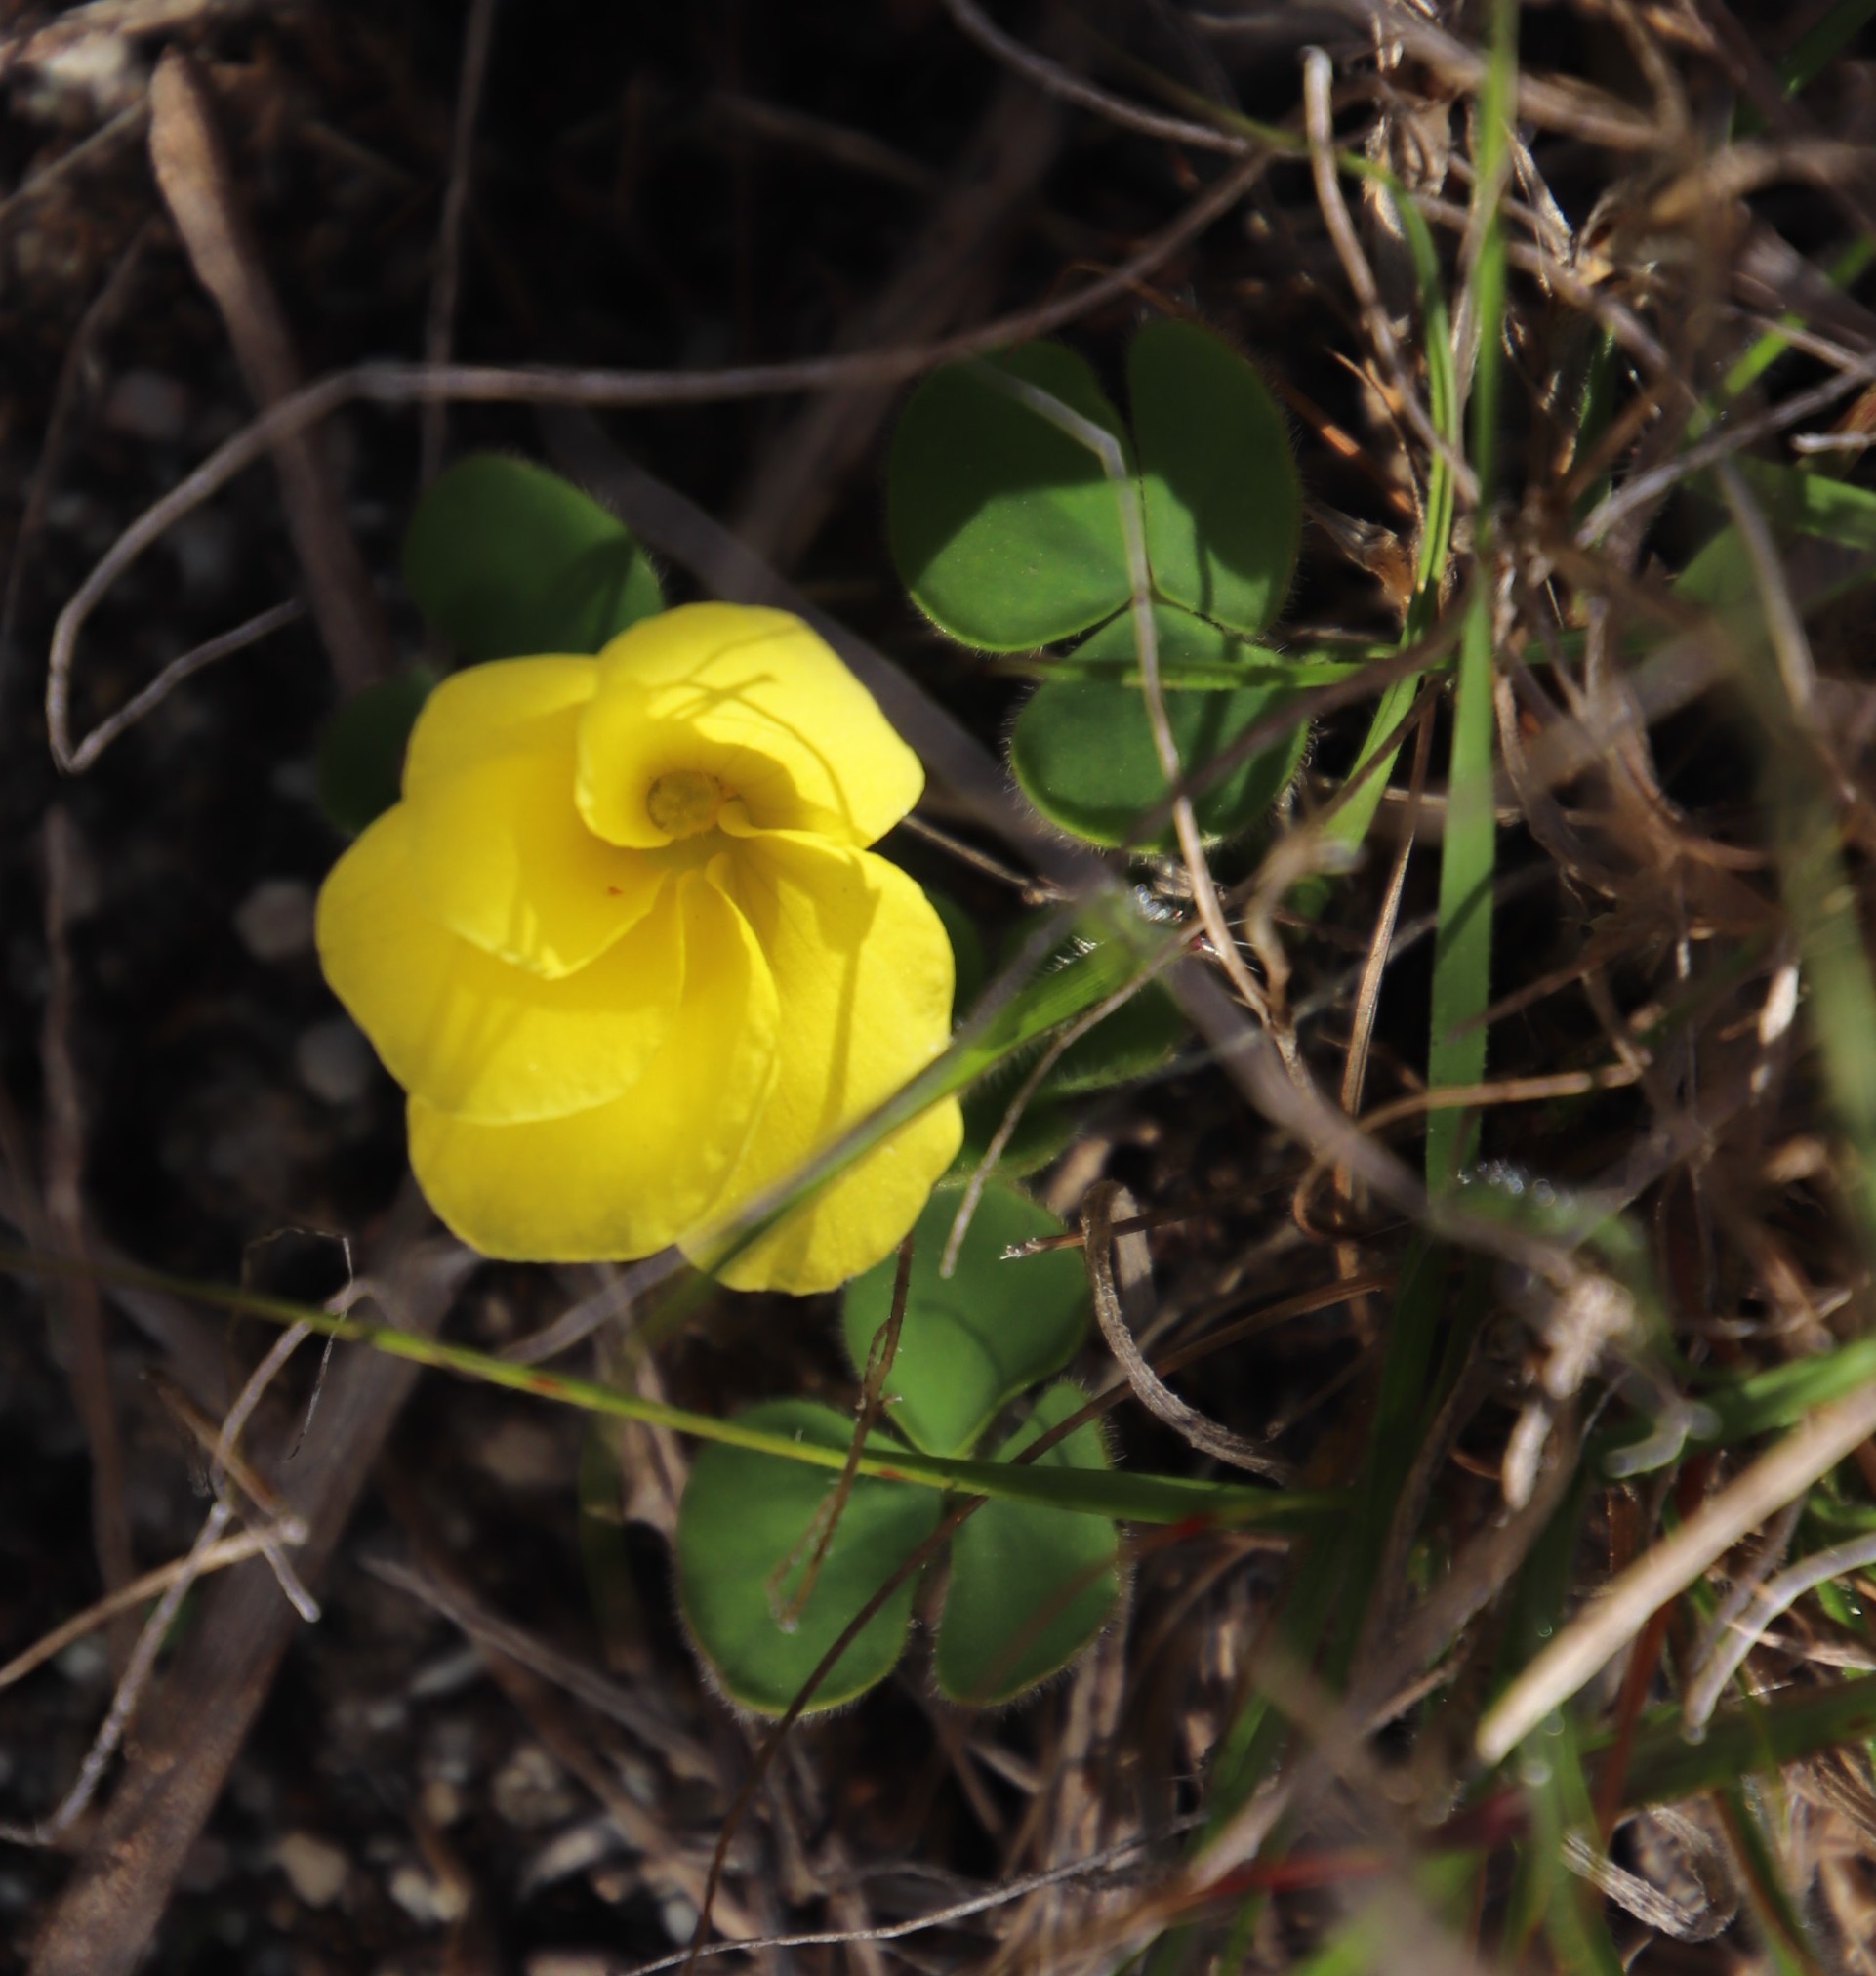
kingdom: Plantae
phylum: Tracheophyta
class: Magnoliopsida
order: Oxalidales
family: Oxalidaceae
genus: Oxalis
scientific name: Oxalis luteola
